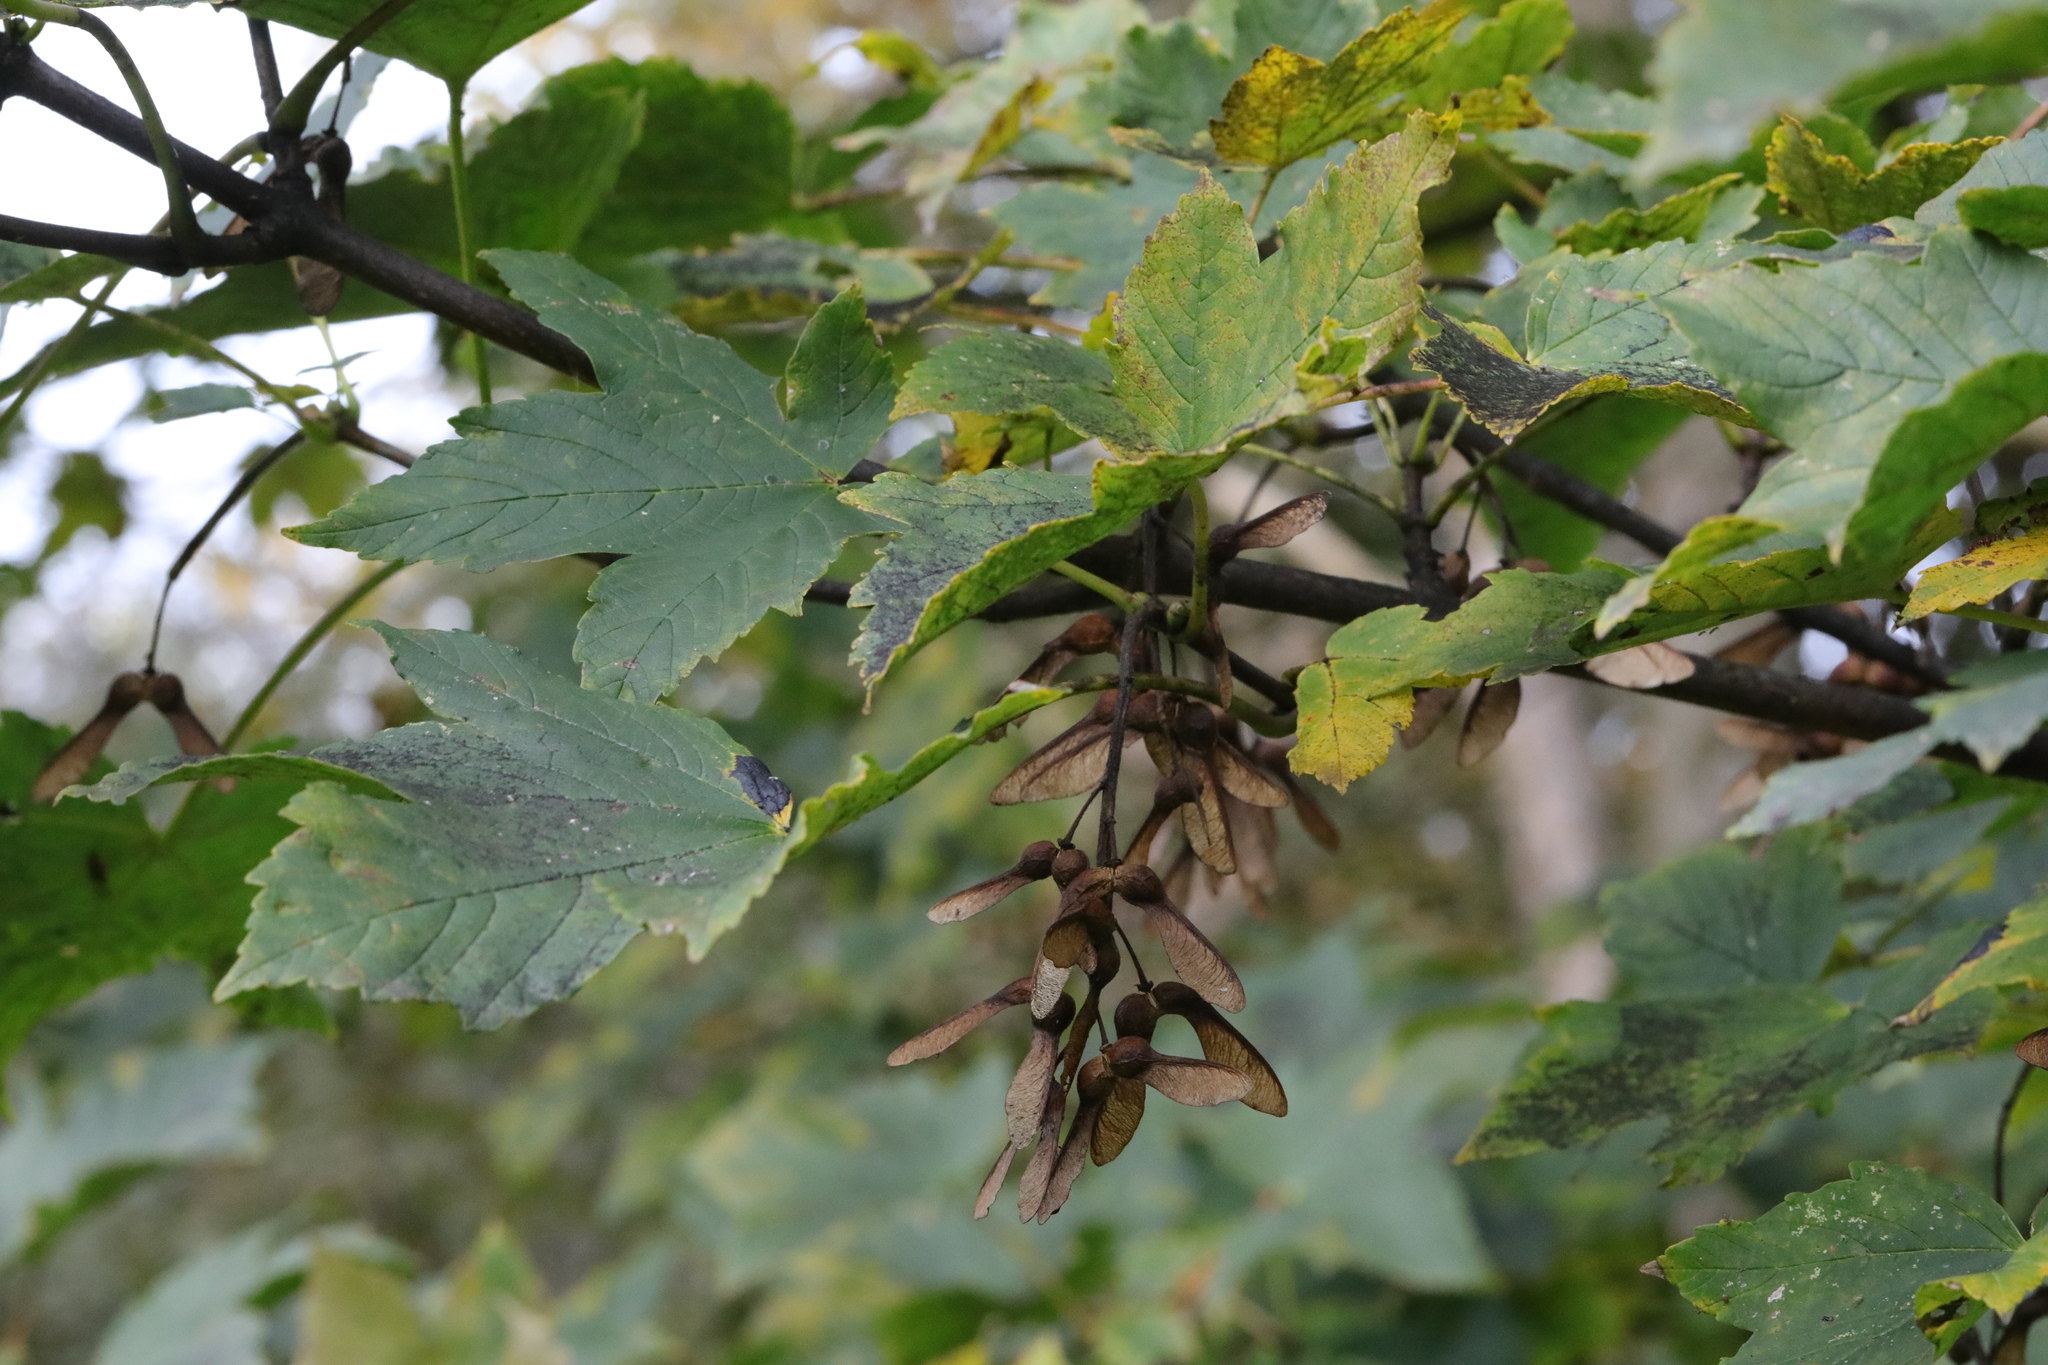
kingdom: Plantae
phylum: Tracheophyta
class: Magnoliopsida
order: Sapindales
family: Sapindaceae
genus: Acer
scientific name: Acer pseudoplatanus
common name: Sycamore
